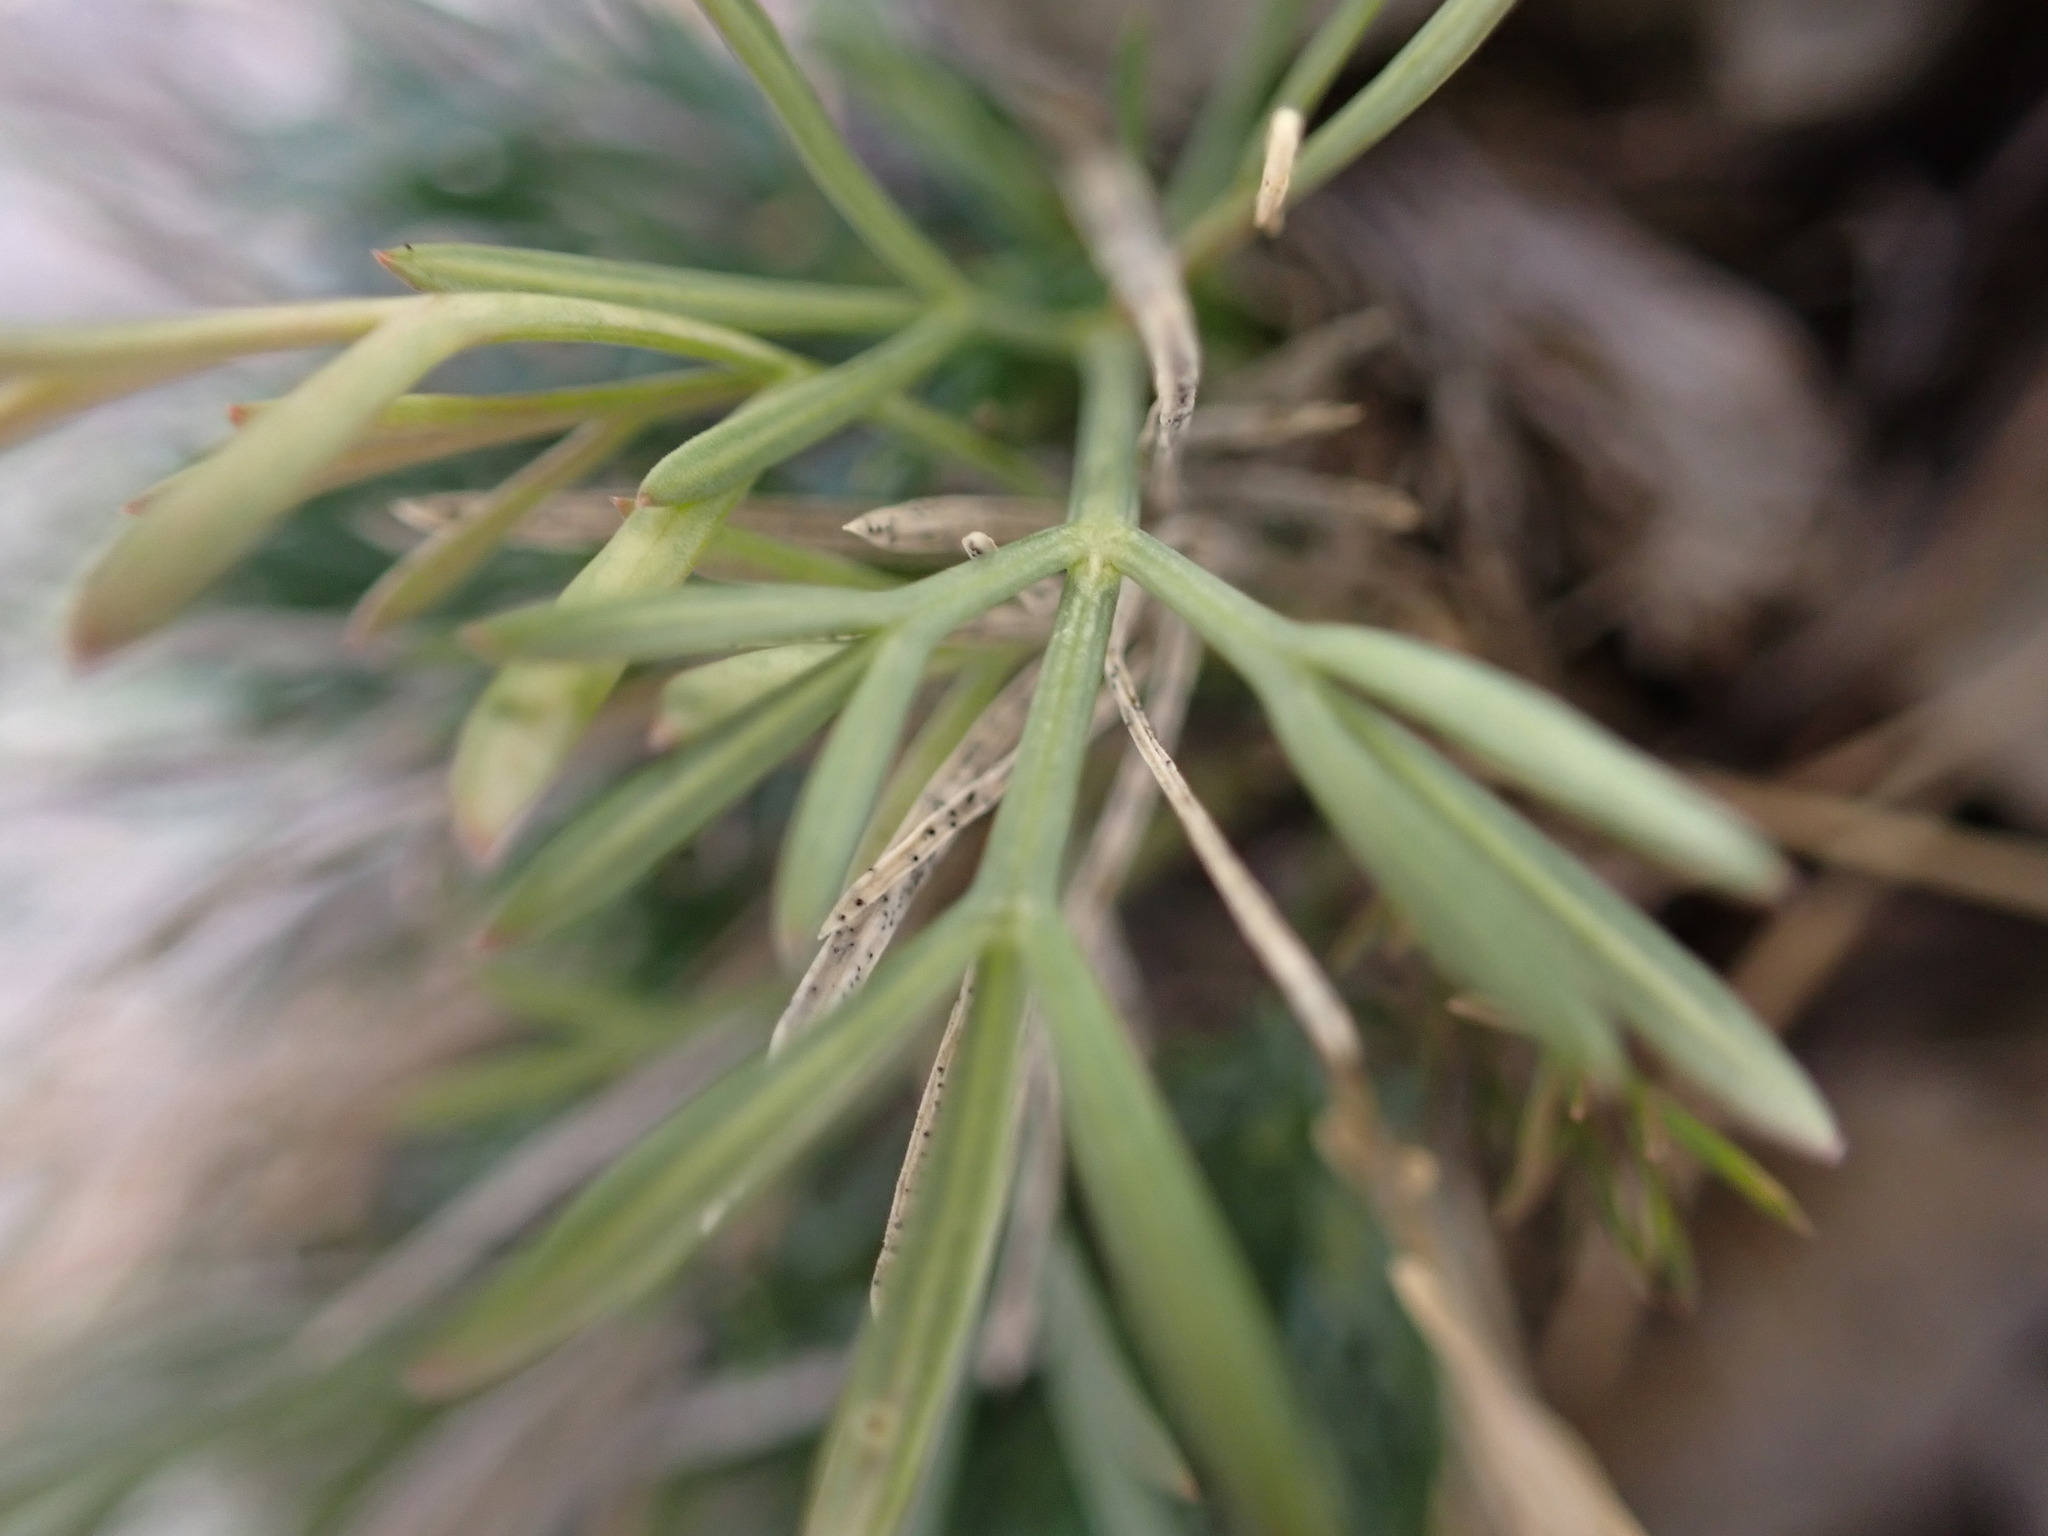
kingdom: Plantae
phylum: Tracheophyta
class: Magnoliopsida
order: Apiales
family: Apiaceae
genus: Seseli
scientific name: Seseli galloprovinciale
